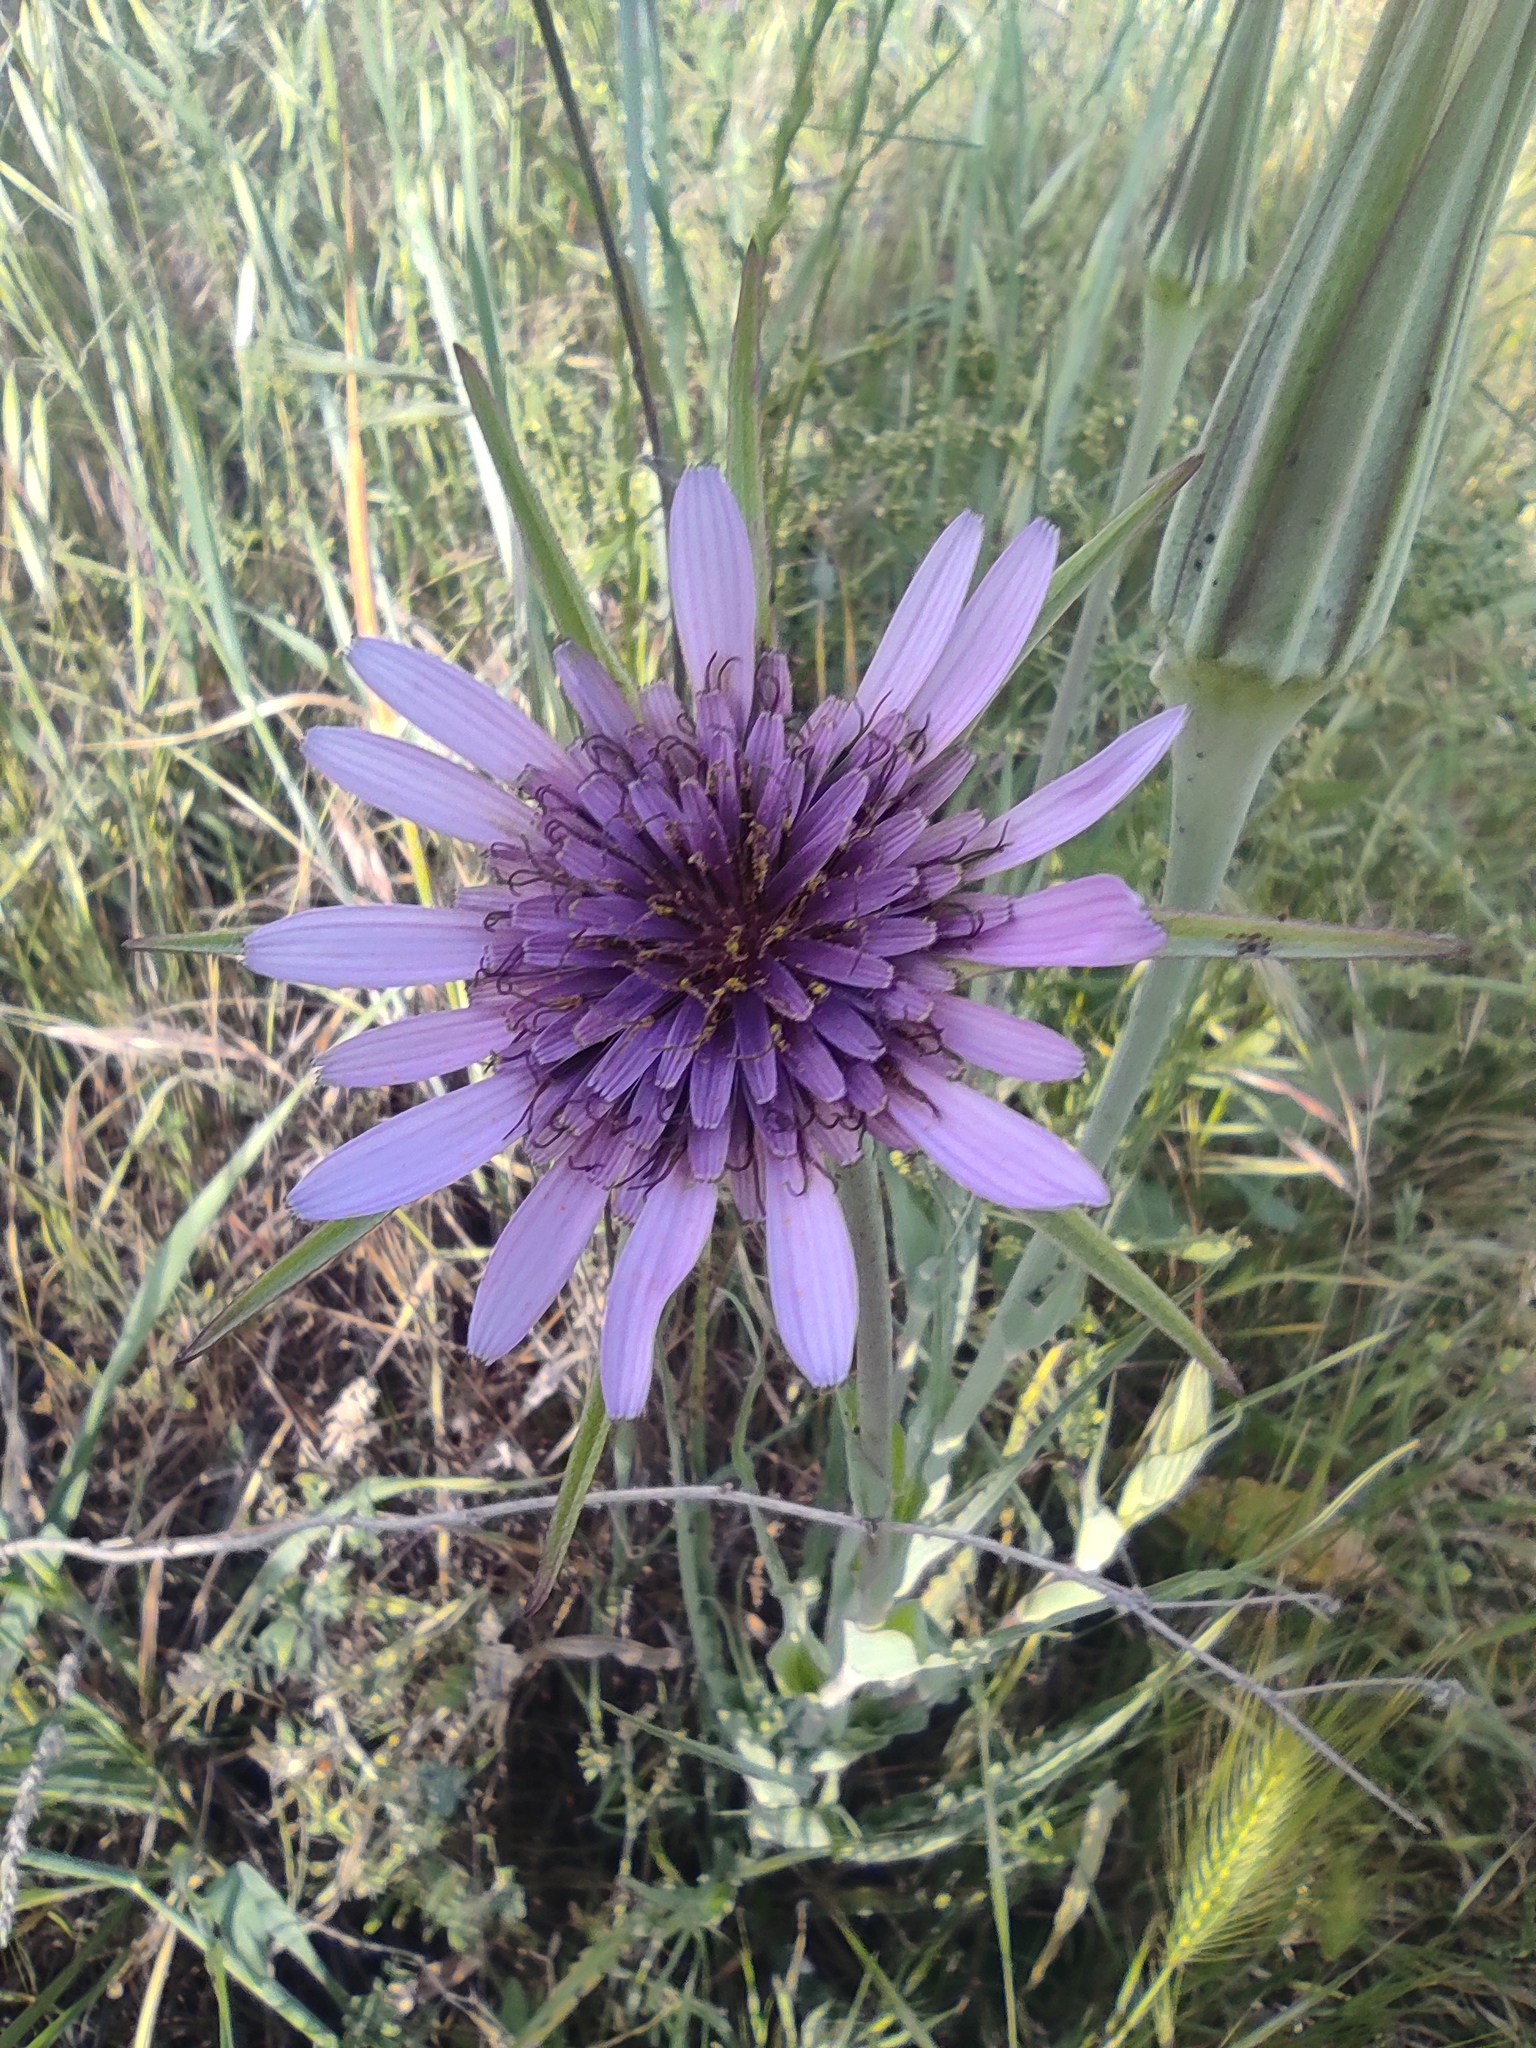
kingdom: Plantae
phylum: Tracheophyta
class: Magnoliopsida
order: Asterales
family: Asteraceae
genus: Tragopogon
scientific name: Tragopogon porrifolius
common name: Salsify
